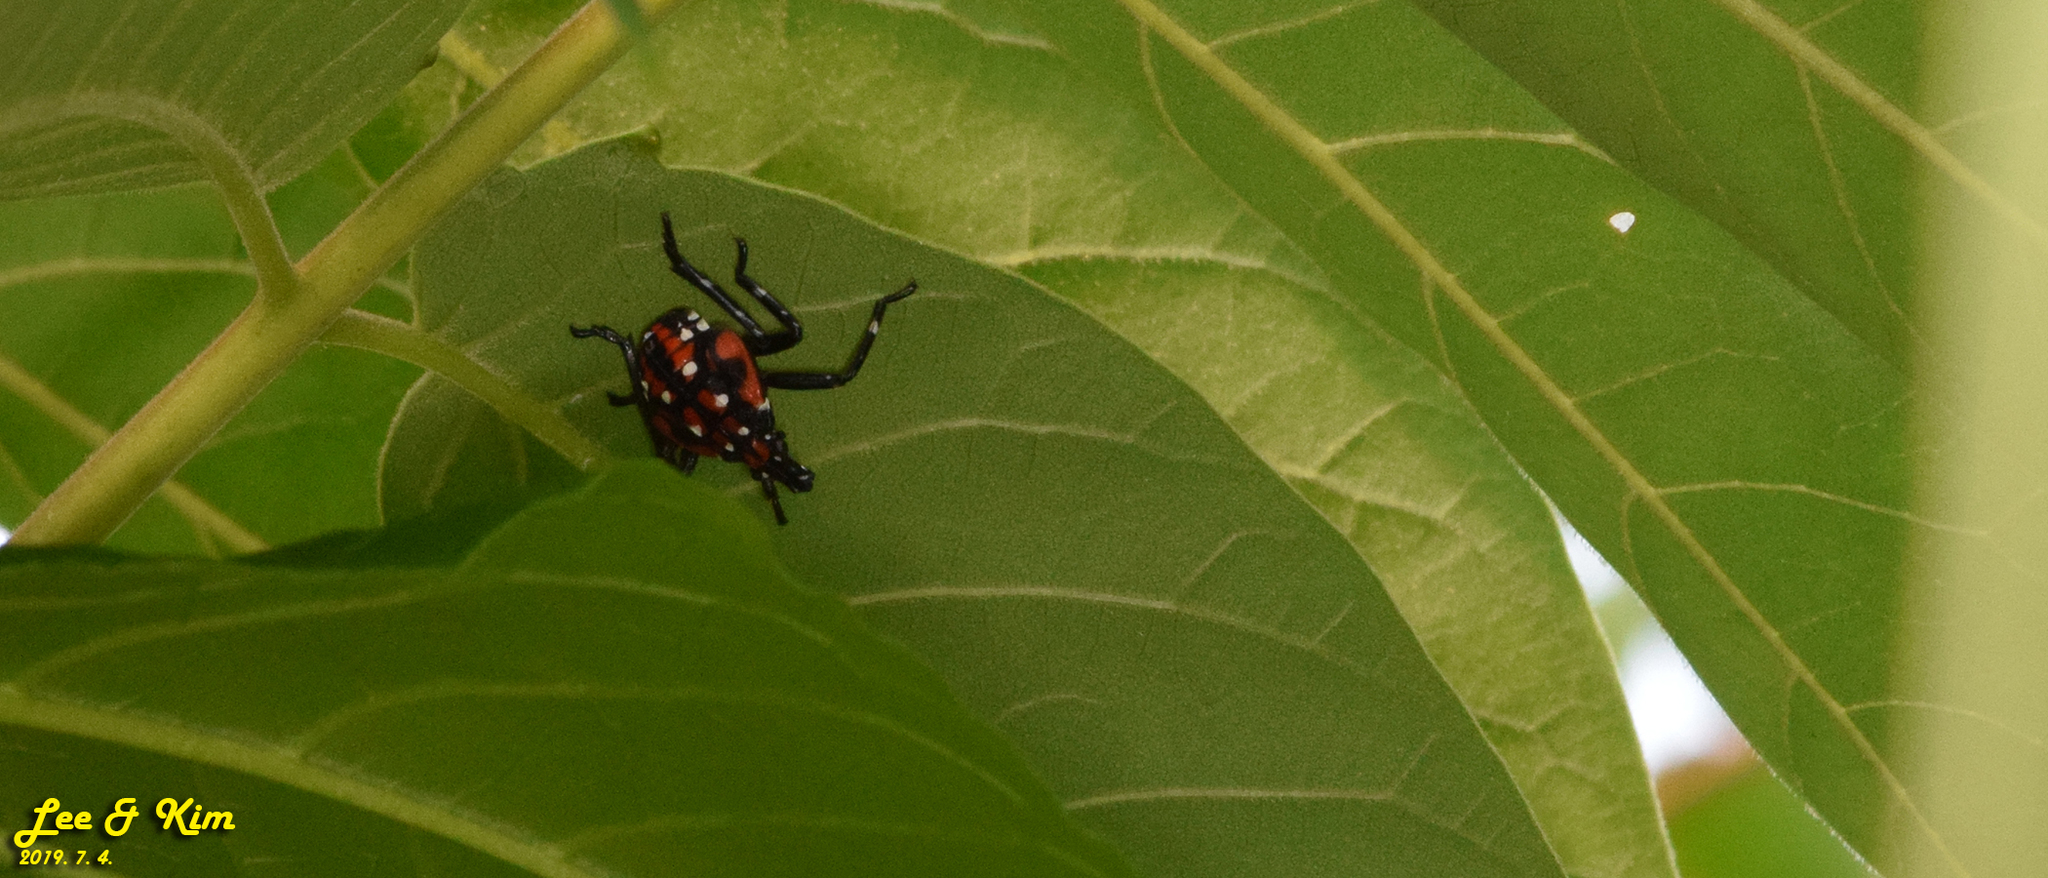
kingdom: Animalia
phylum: Arthropoda
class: Insecta
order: Hemiptera
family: Fulgoridae
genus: Lycorma
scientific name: Lycorma delicatula
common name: Spotted lanternfly
